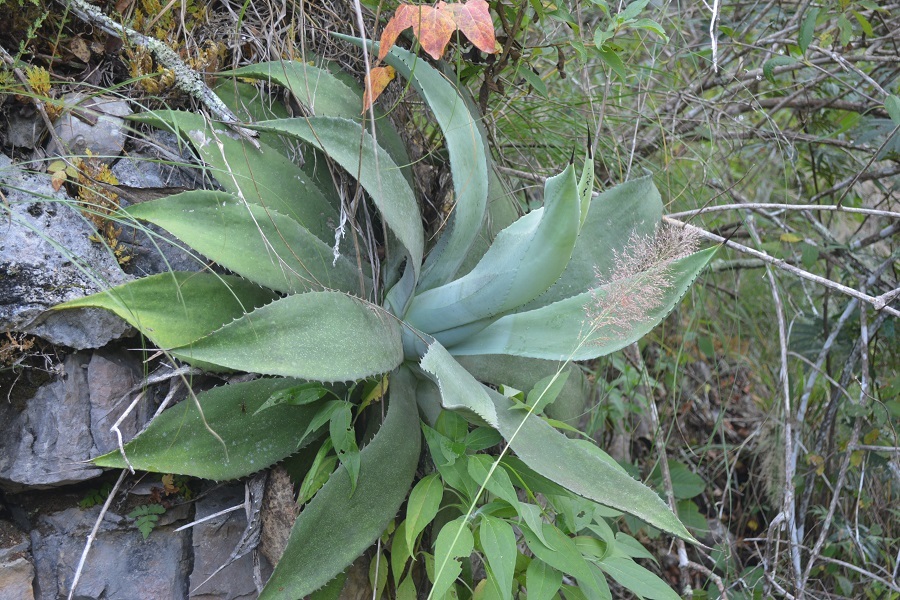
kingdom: Plantae
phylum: Tracheophyta
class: Liliopsida
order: Asparagales
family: Asparagaceae
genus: Agave
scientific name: Agave kewensis
